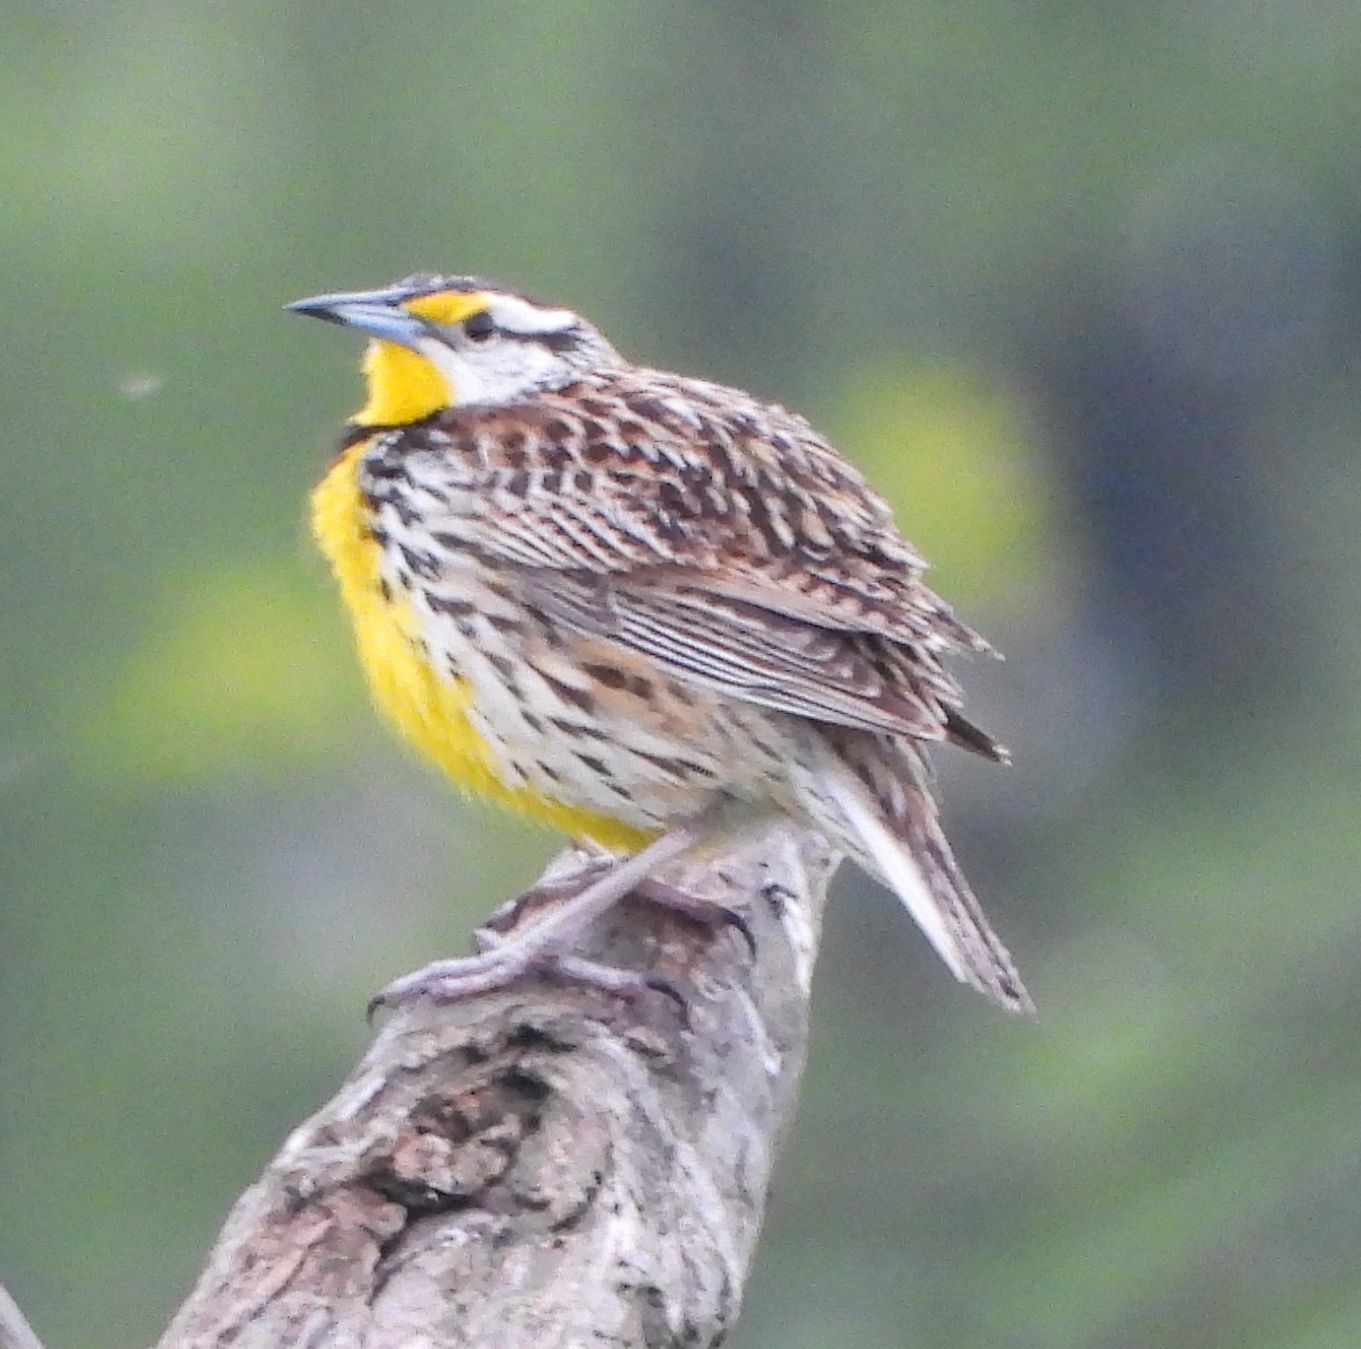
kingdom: Animalia
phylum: Chordata
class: Aves
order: Passeriformes
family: Icteridae
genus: Sturnella
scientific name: Sturnella magna
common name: Eastern meadowlark
